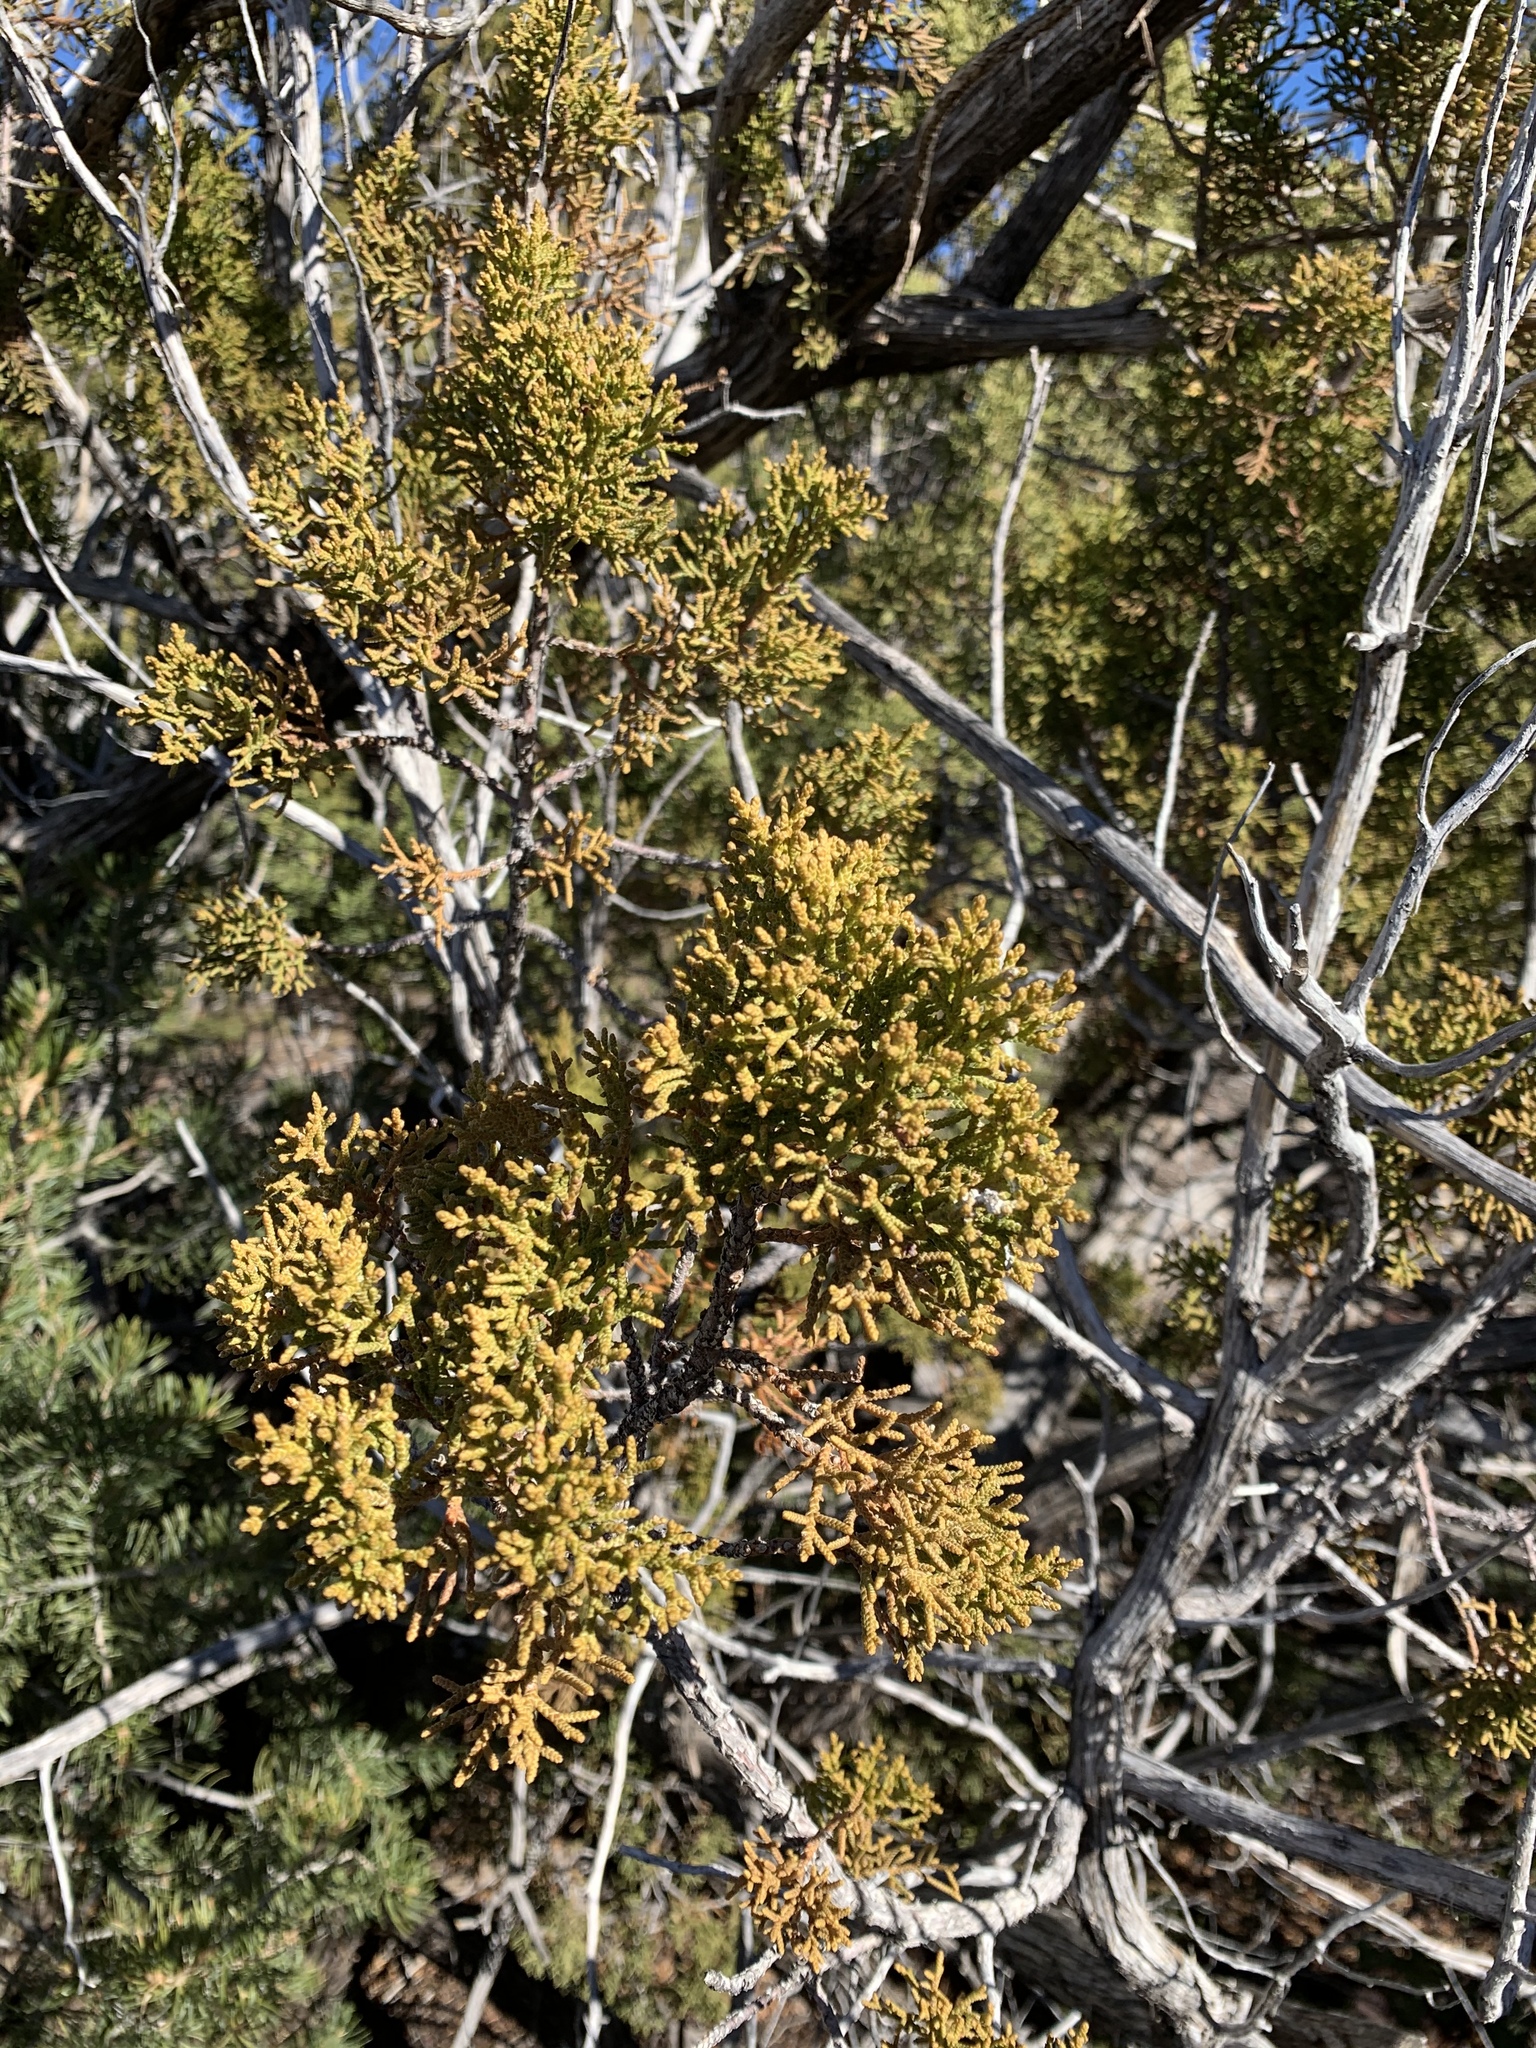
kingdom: Plantae
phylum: Tracheophyta
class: Pinopsida
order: Pinales
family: Cupressaceae
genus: Juniperus
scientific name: Juniperus monosperma
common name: One-seed juniper
